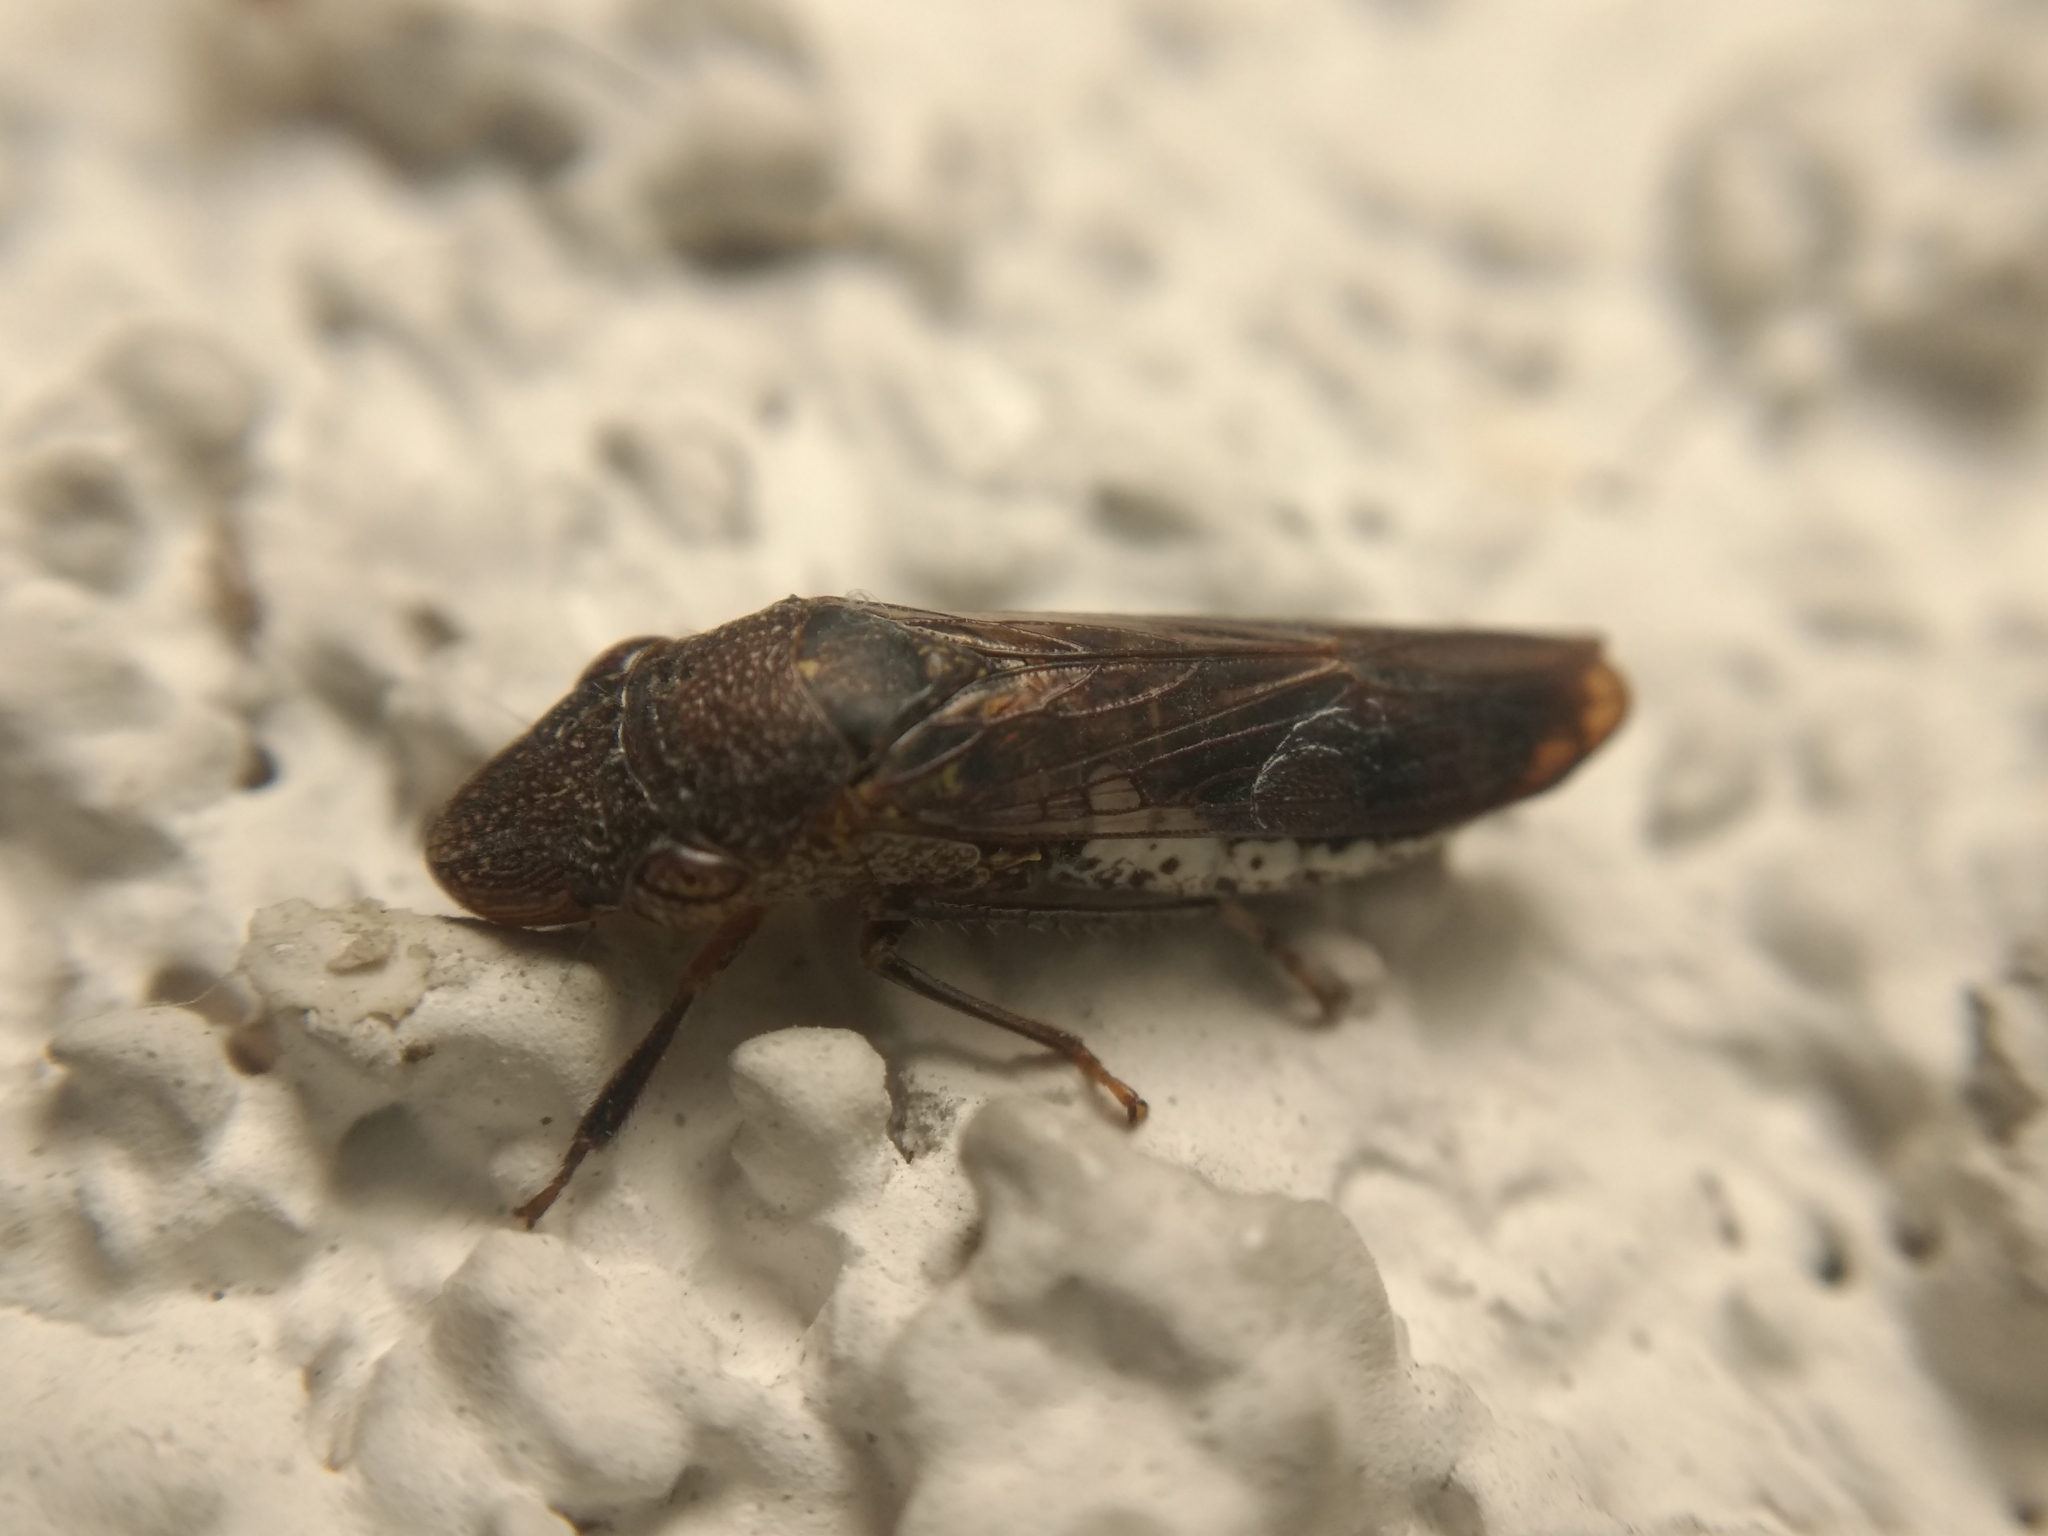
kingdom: Animalia
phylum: Arthropoda
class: Insecta
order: Hemiptera
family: Cicadellidae
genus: Homalodisca
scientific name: Homalodisca vitripennis
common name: Glassy-winged sharpshooter
